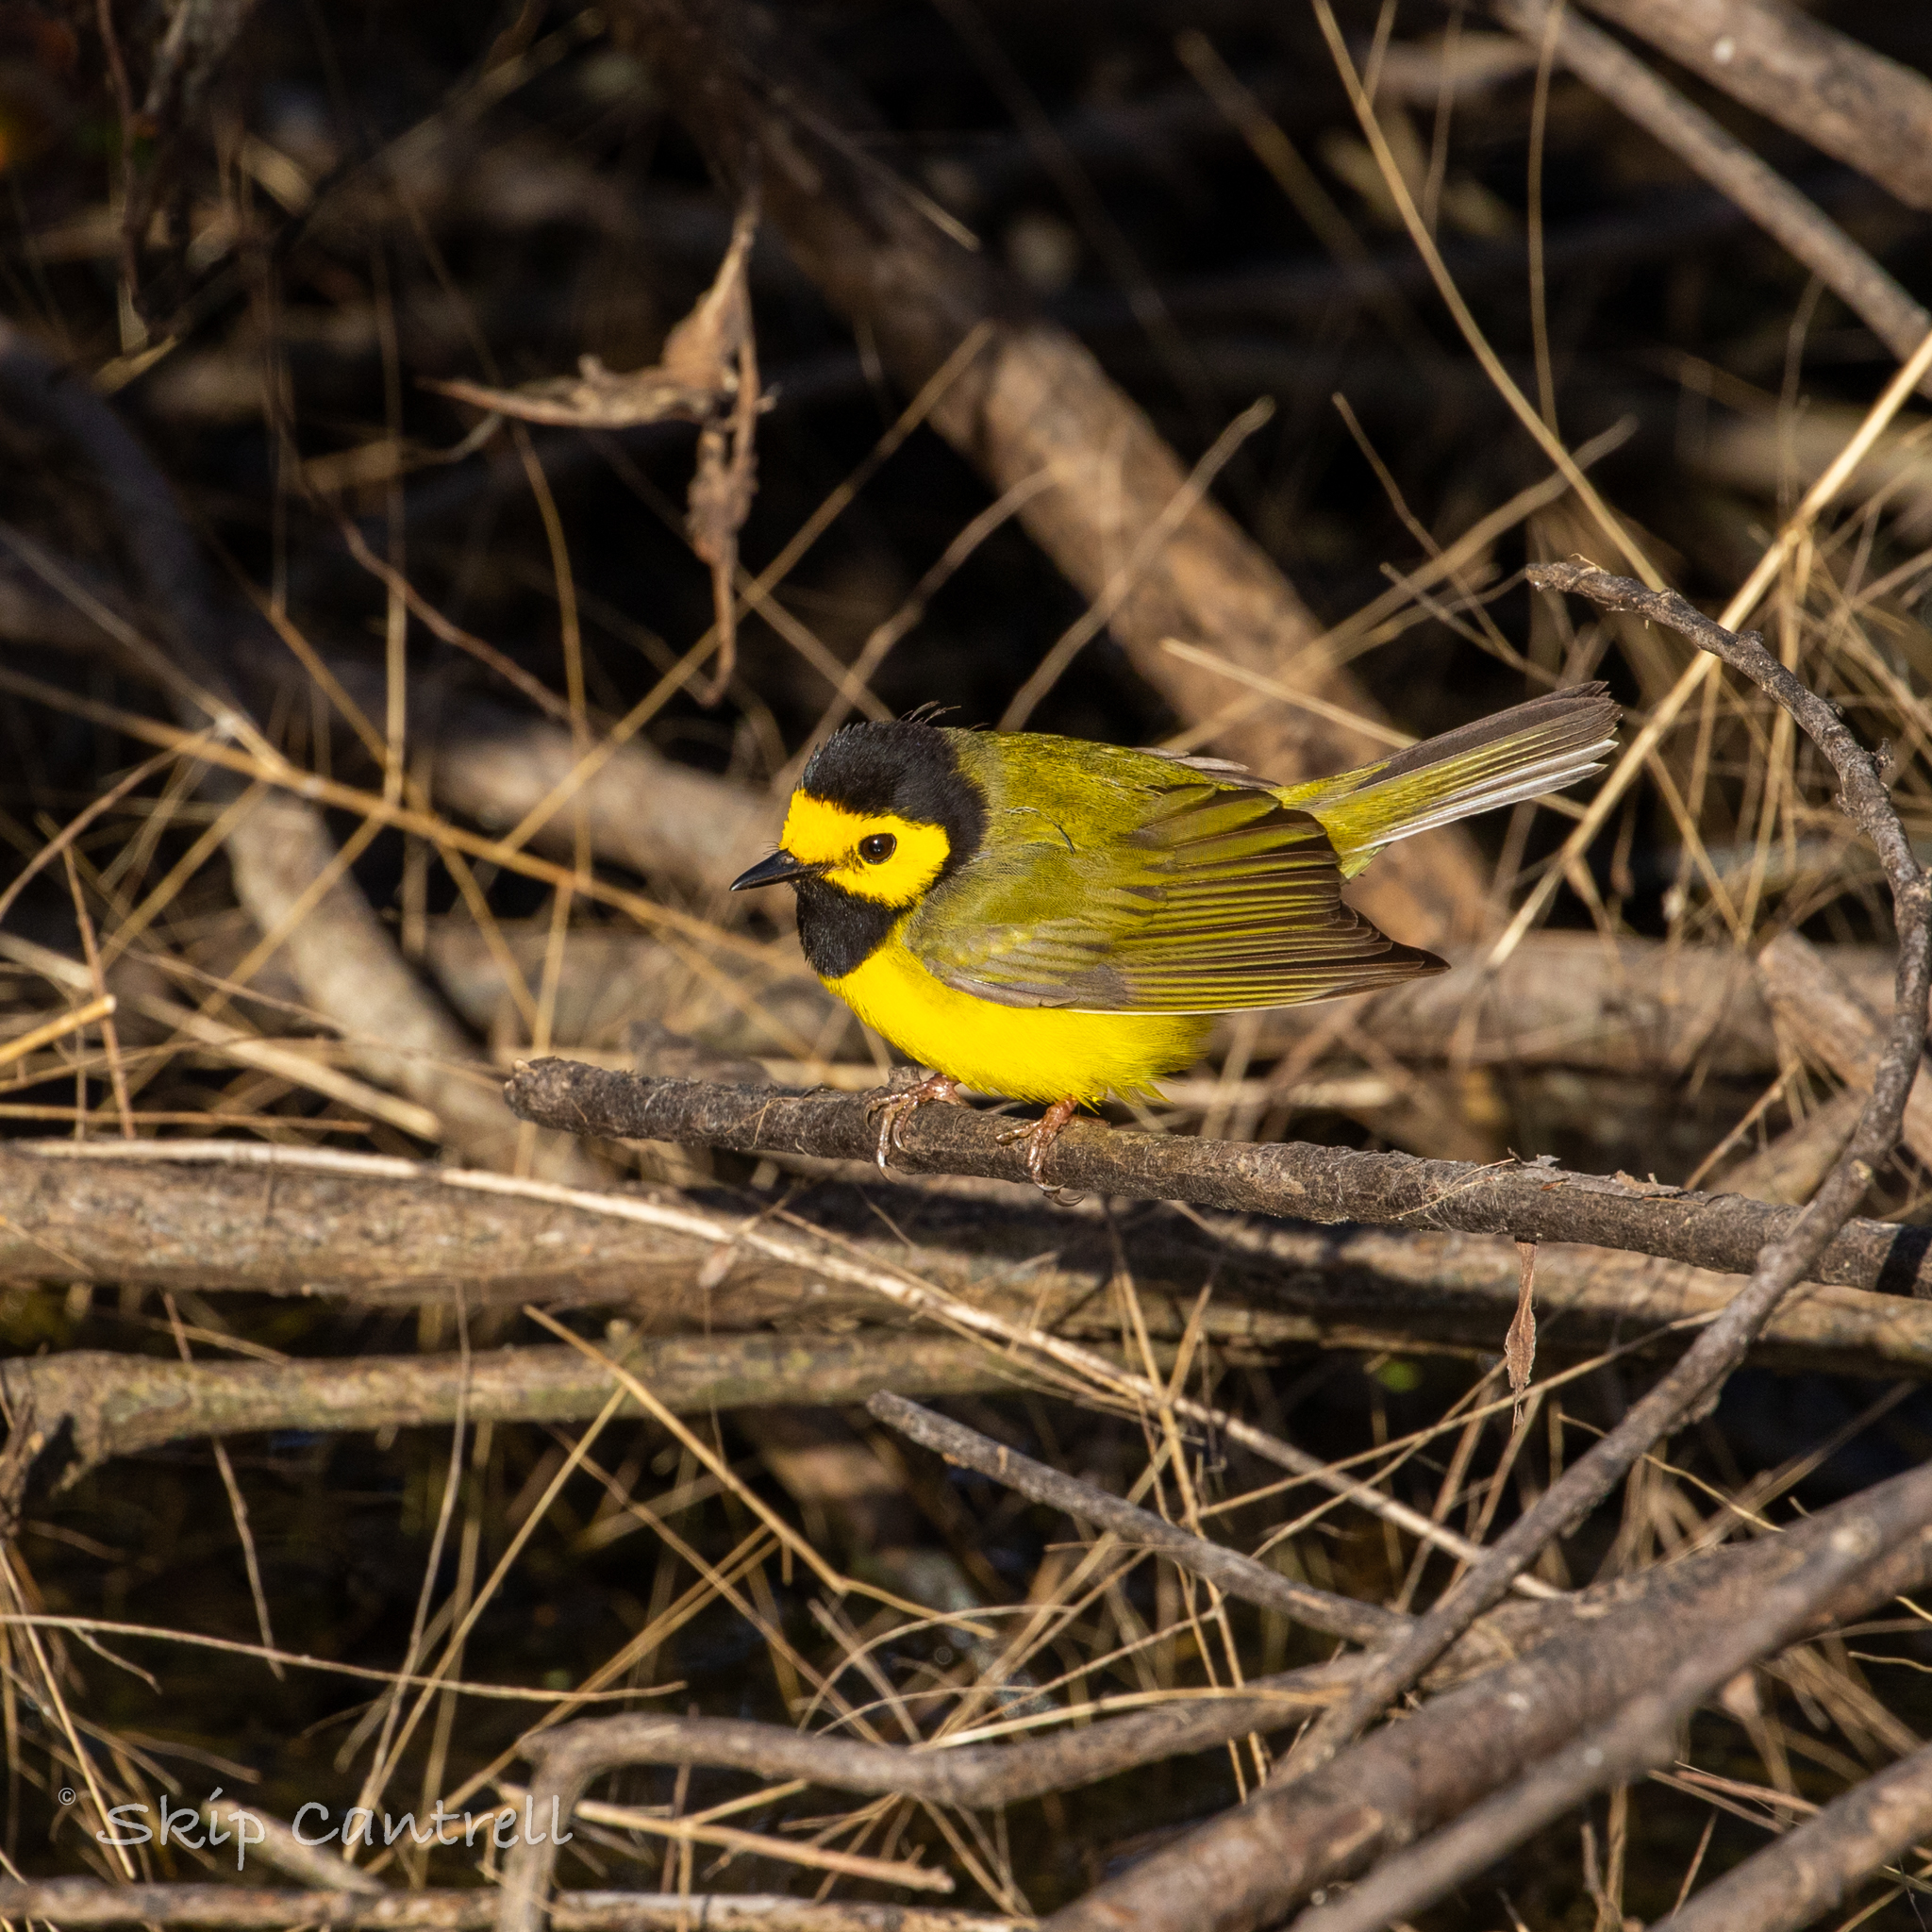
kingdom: Animalia
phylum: Chordata
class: Aves
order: Passeriformes
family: Parulidae
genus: Setophaga
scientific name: Setophaga citrina
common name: Hooded warbler
